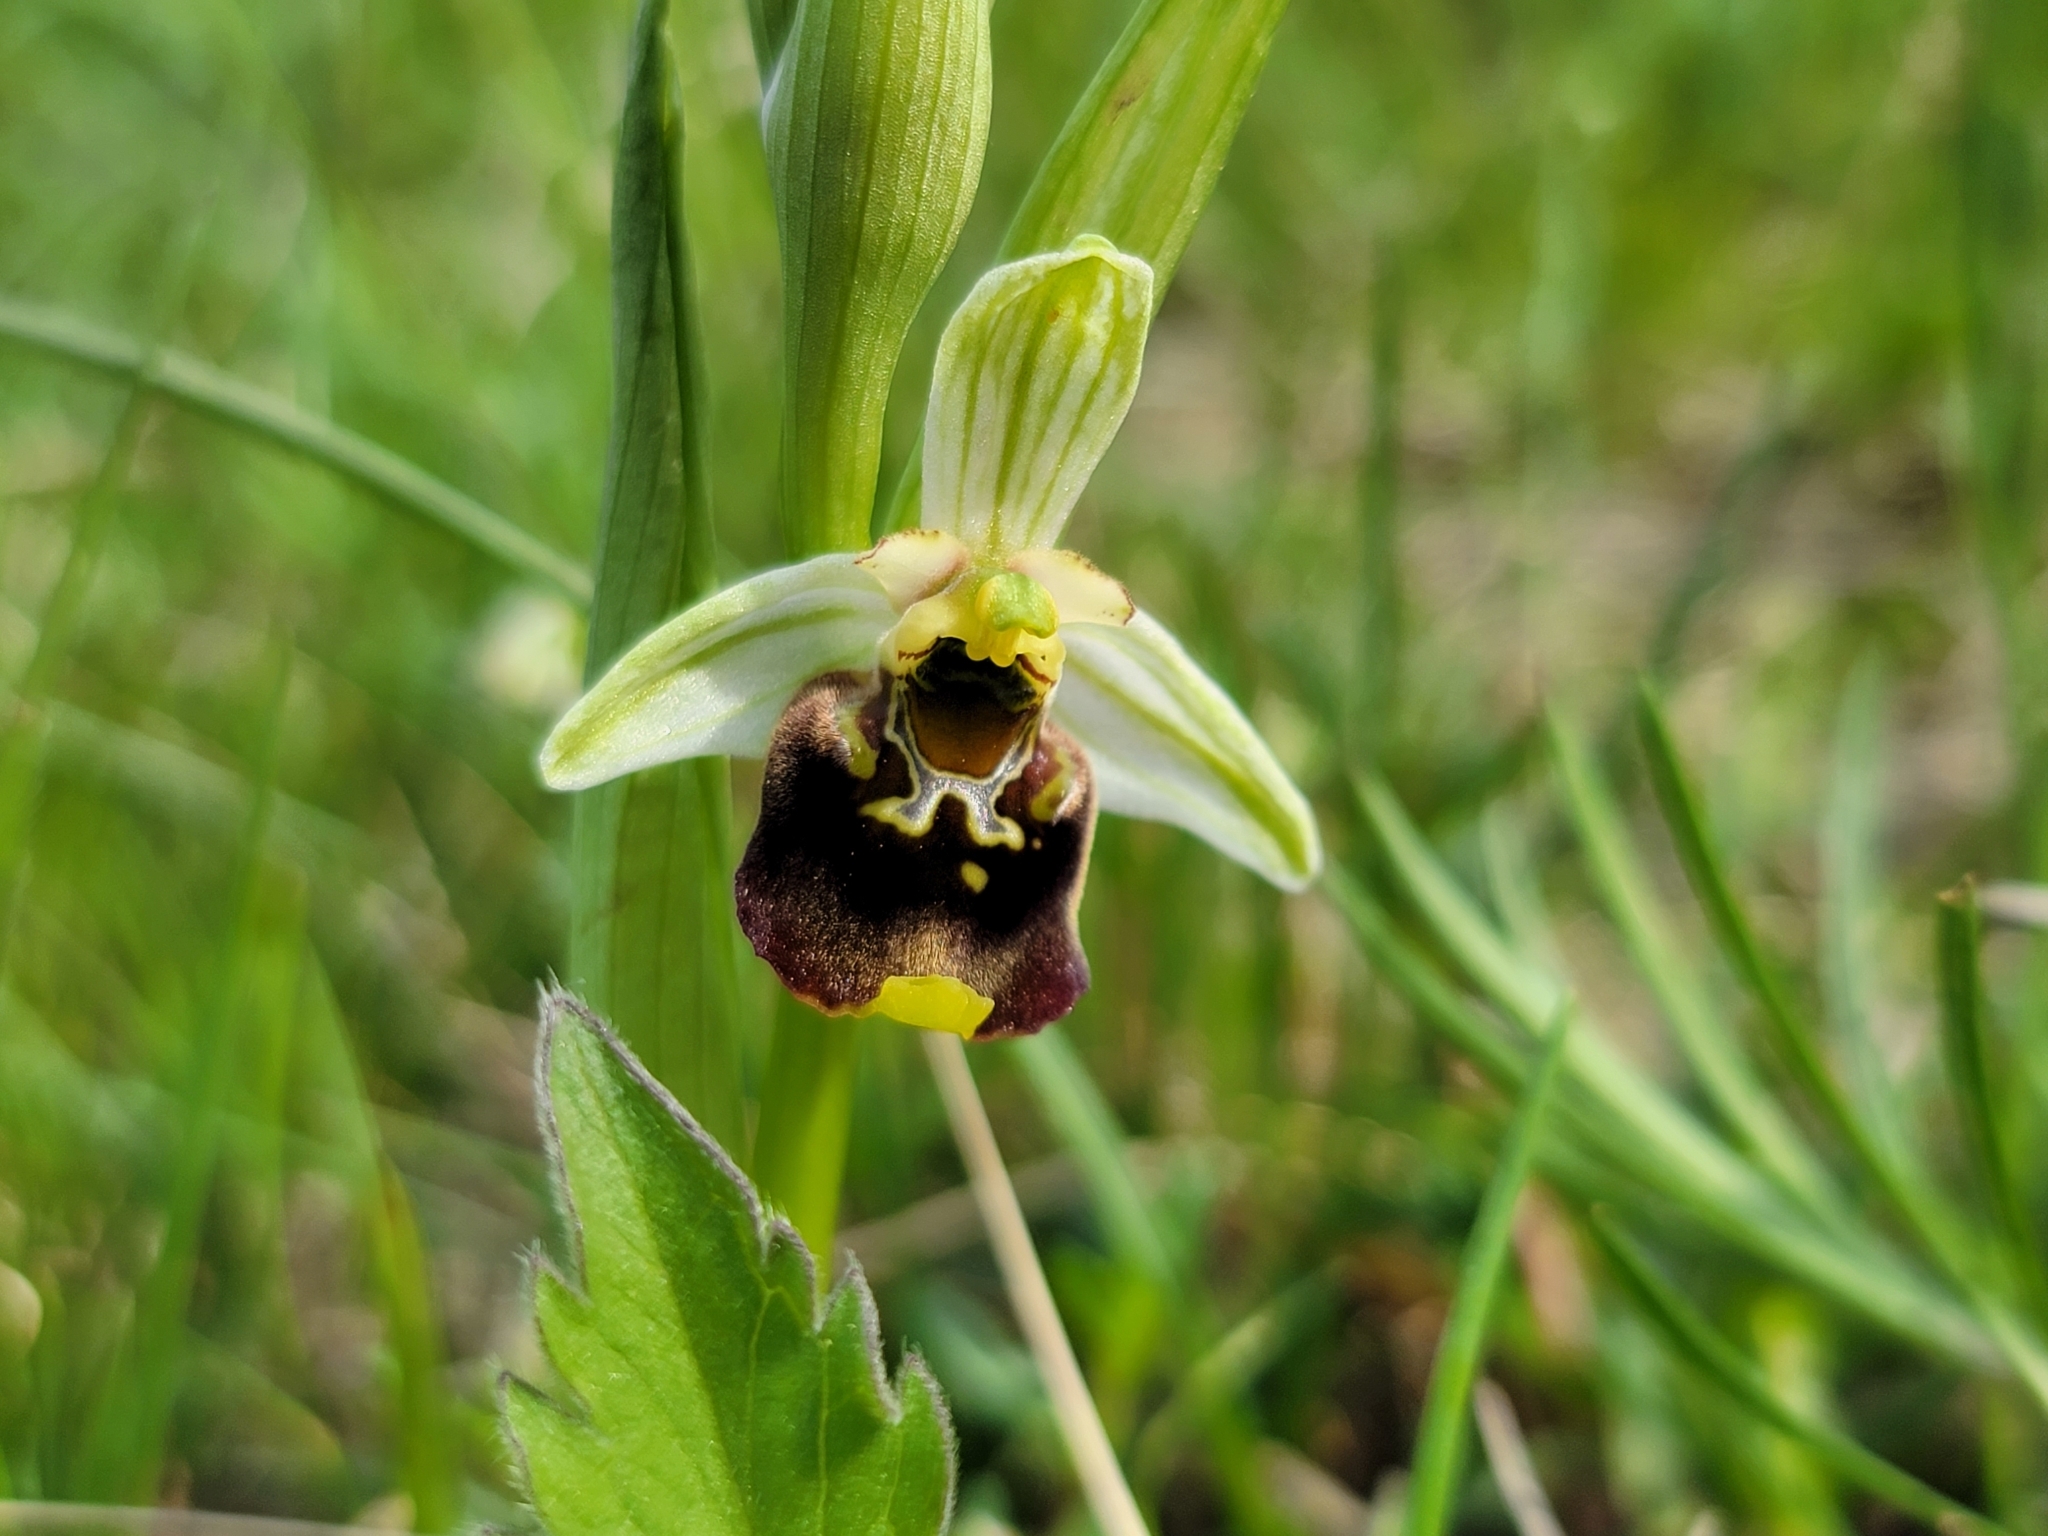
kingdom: Plantae
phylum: Tracheophyta
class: Liliopsida
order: Asparagales
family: Orchidaceae
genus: Ophrys
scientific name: Ophrys holosericea
